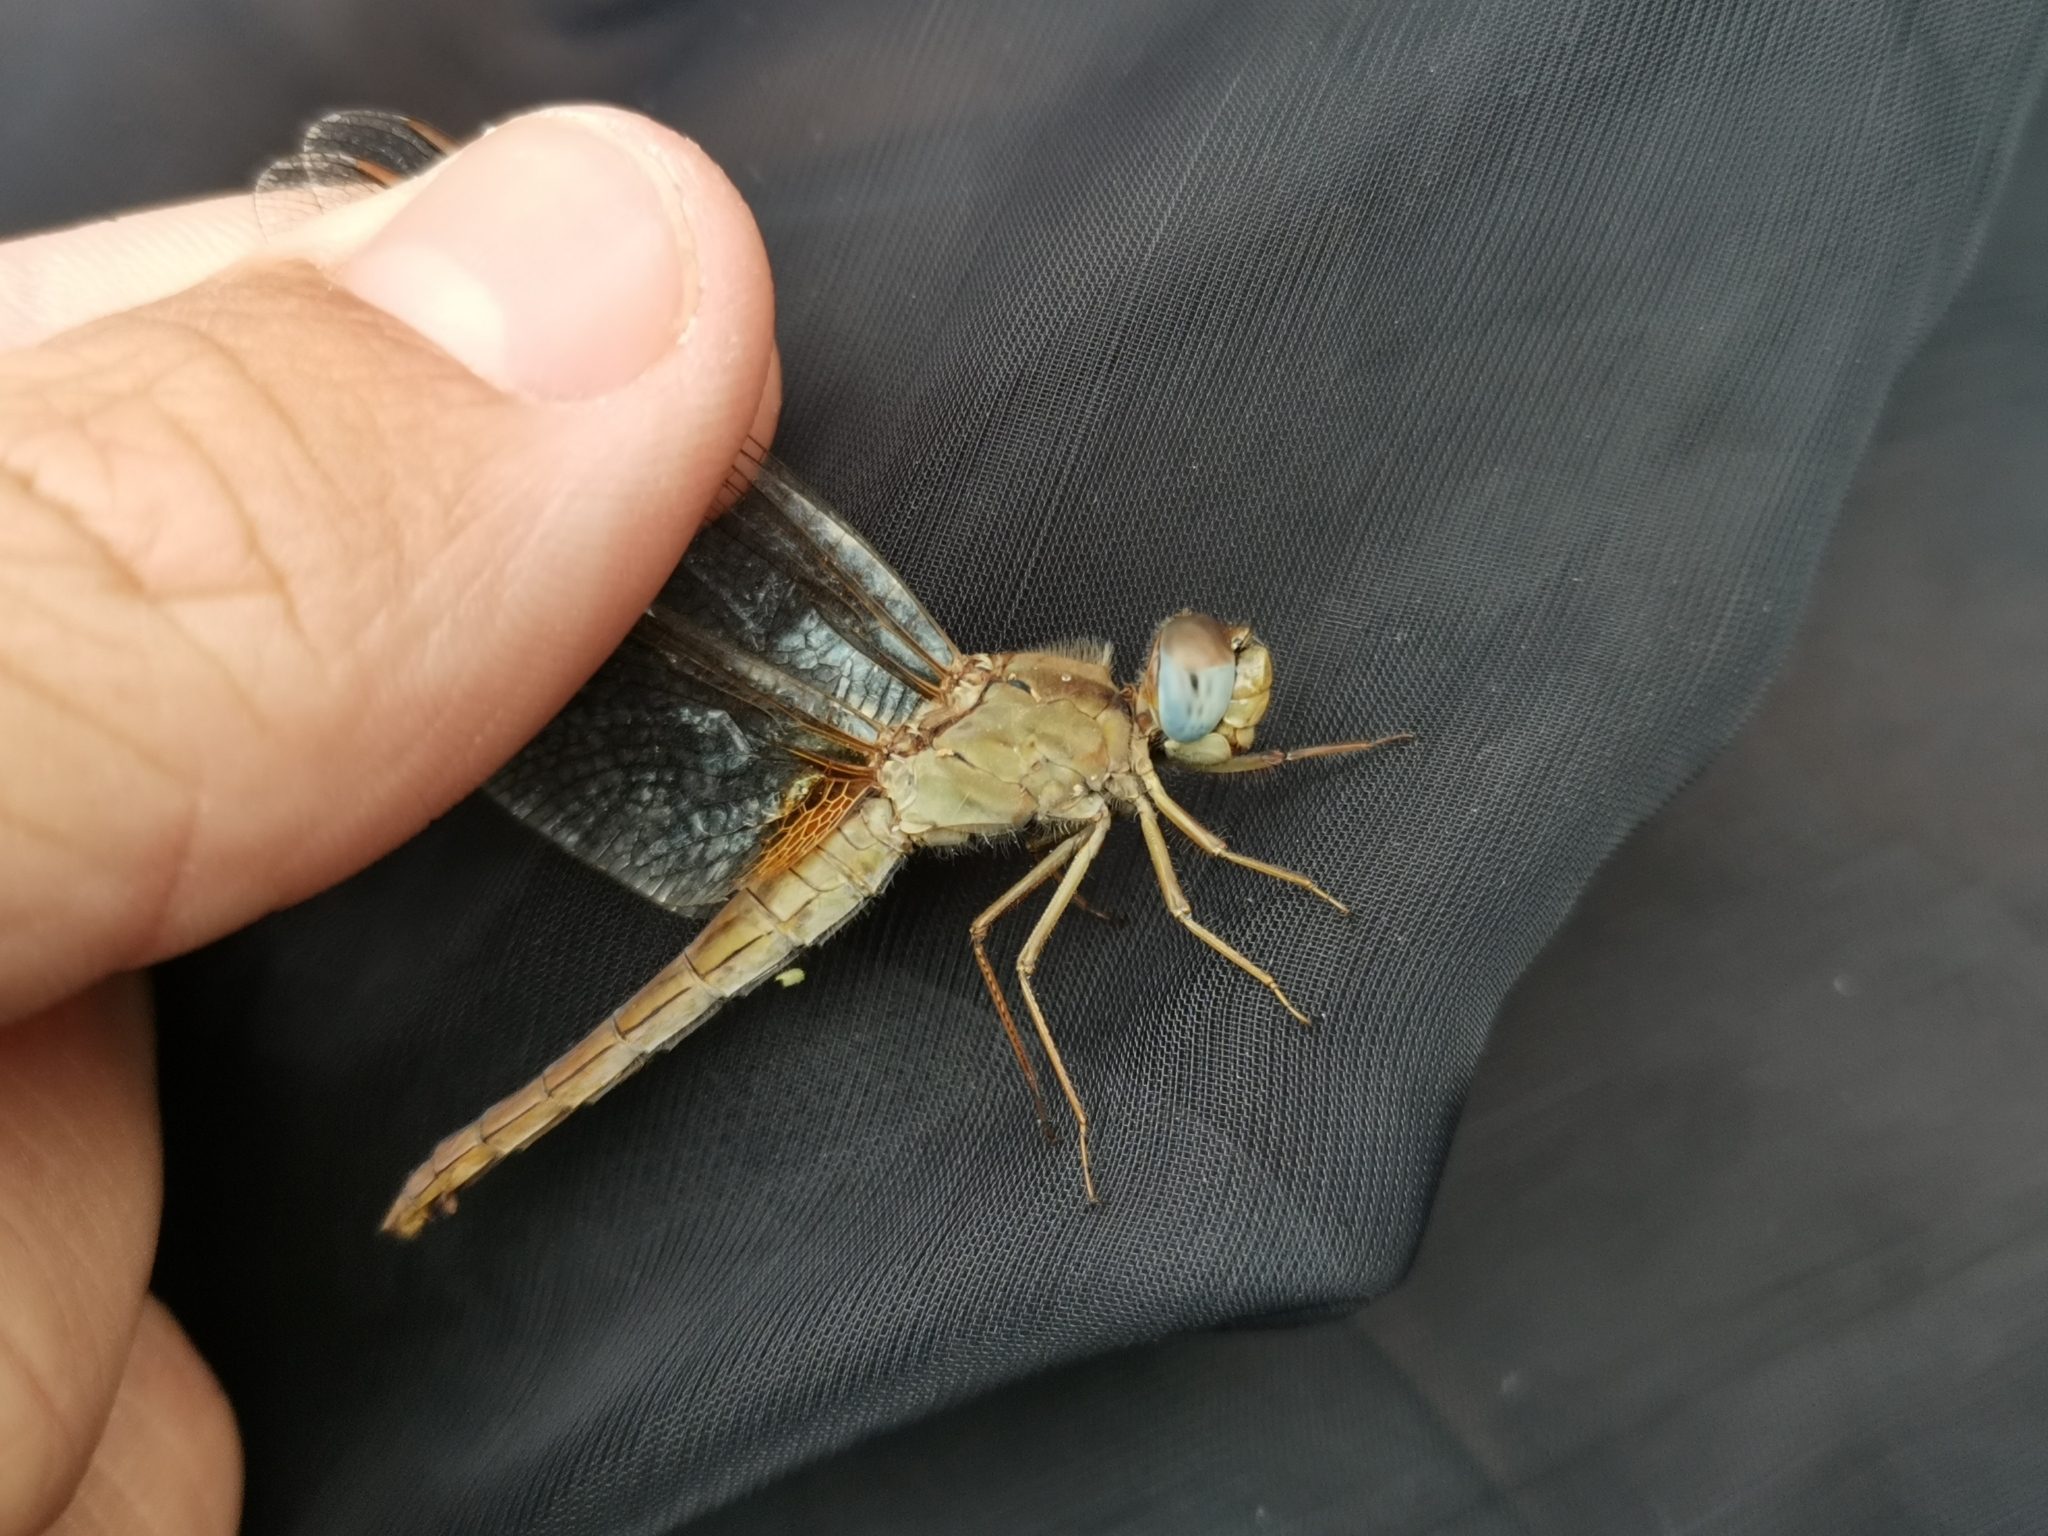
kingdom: Animalia
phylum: Arthropoda
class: Insecta
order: Odonata
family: Libellulidae
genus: Crocothemis
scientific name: Crocothemis erythraea
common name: Scarlet dragonfly
